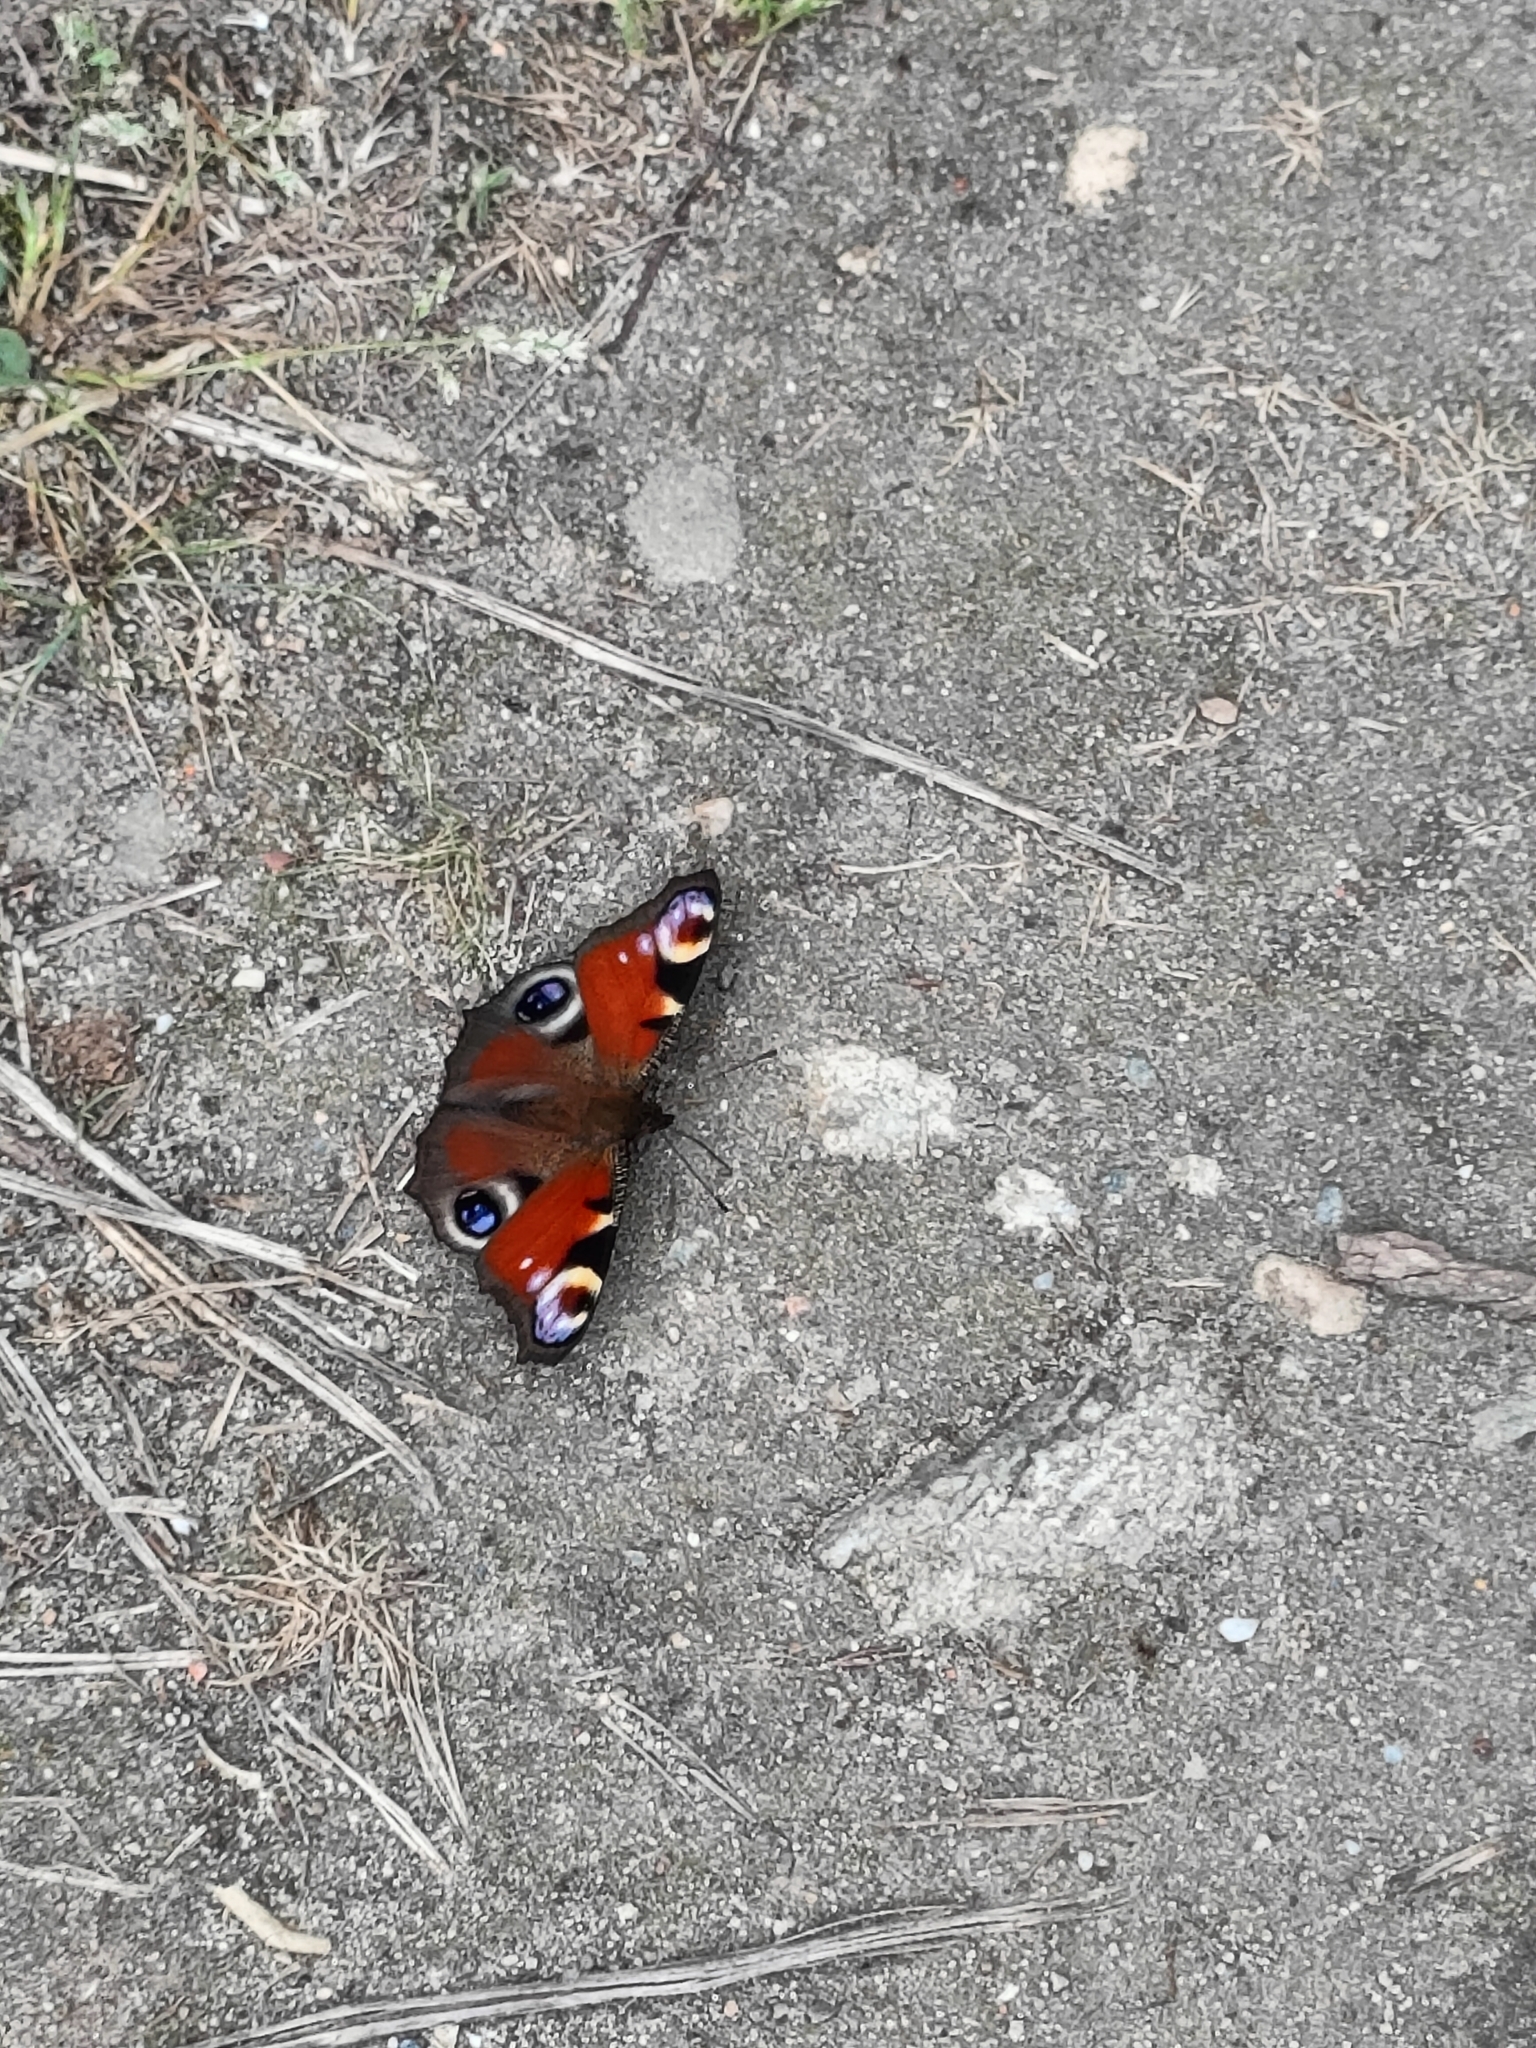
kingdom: Animalia
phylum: Arthropoda
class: Insecta
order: Lepidoptera
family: Nymphalidae
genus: Aglais
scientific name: Aglais io
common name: Peacock
